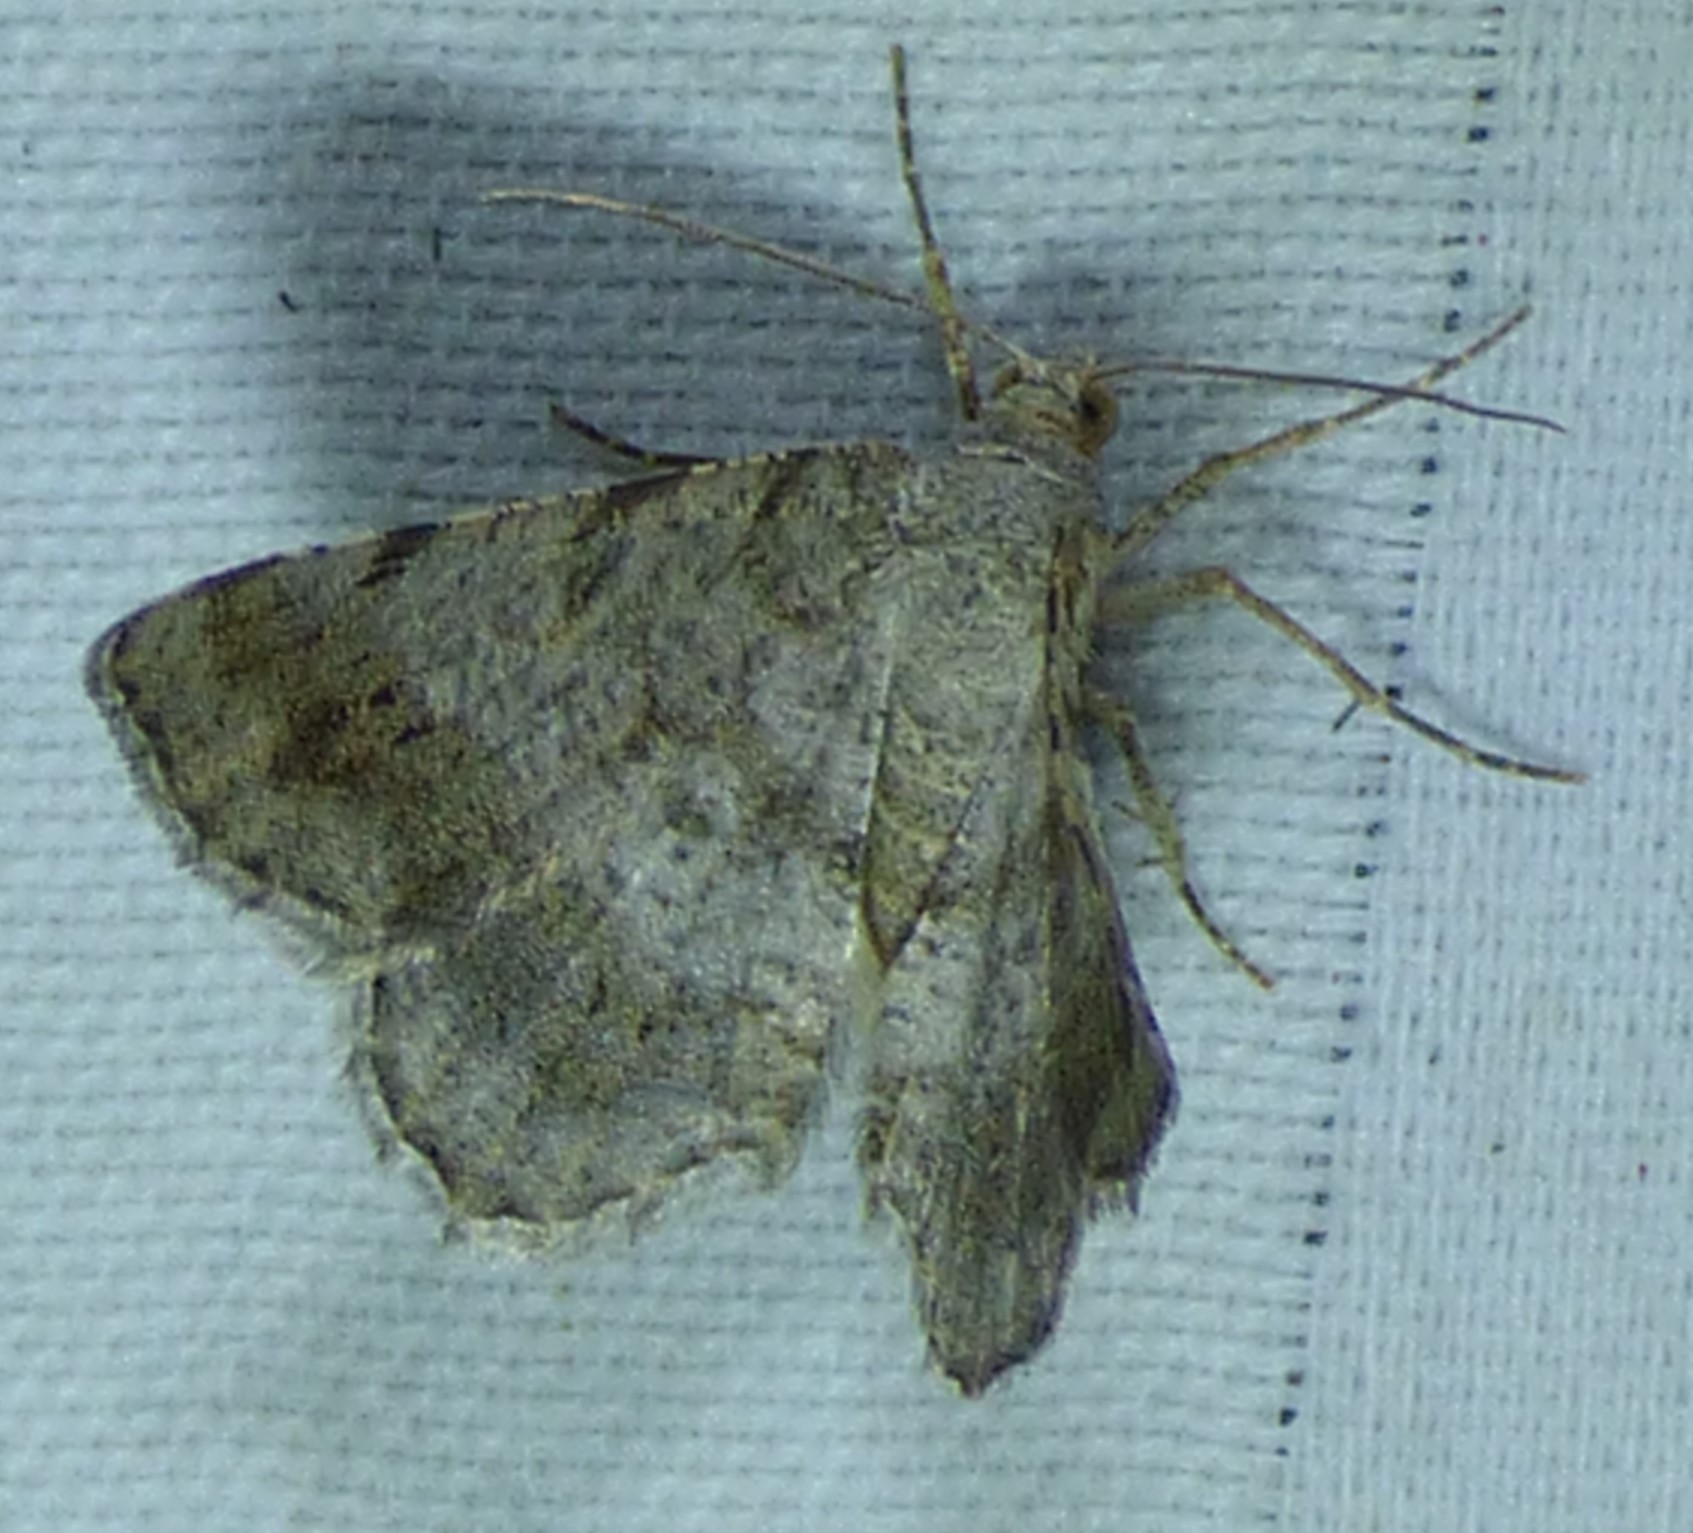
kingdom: Animalia
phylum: Arthropoda
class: Insecta
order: Lepidoptera
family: Geometridae
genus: Digrammia
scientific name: Digrammia ocellinata
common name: Faint-spotted angle
